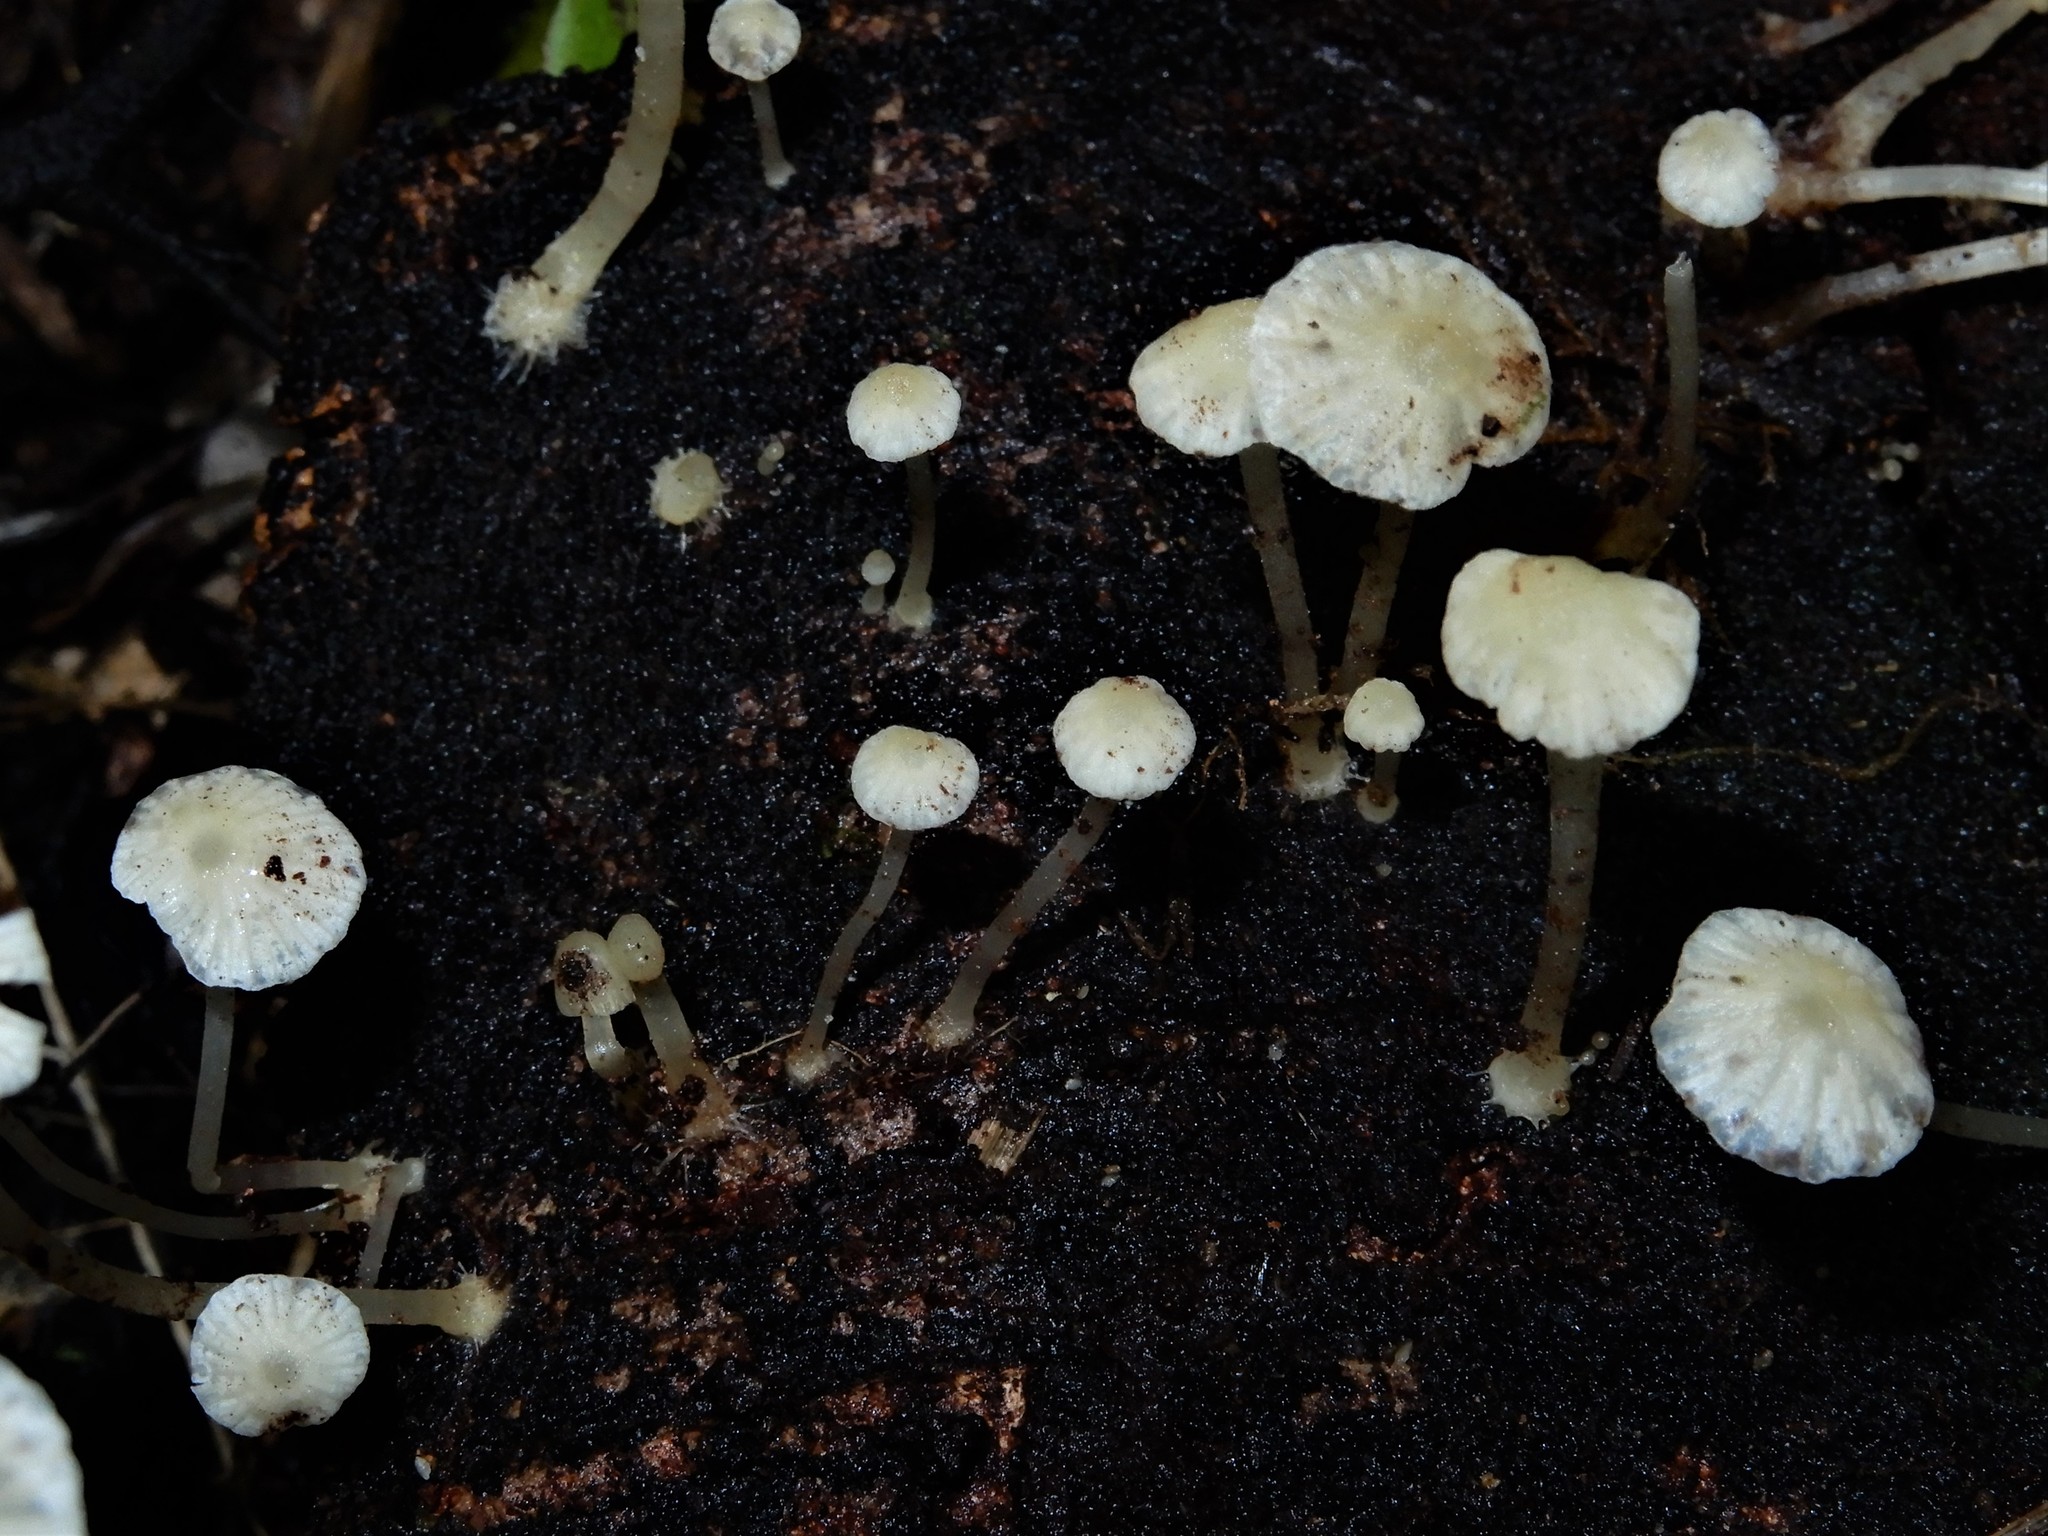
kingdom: Fungi
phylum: Basidiomycota
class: Agaricomycetes
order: Agaricales
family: Porotheleaceae
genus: Phloeomana
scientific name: Phloeomana minutula
